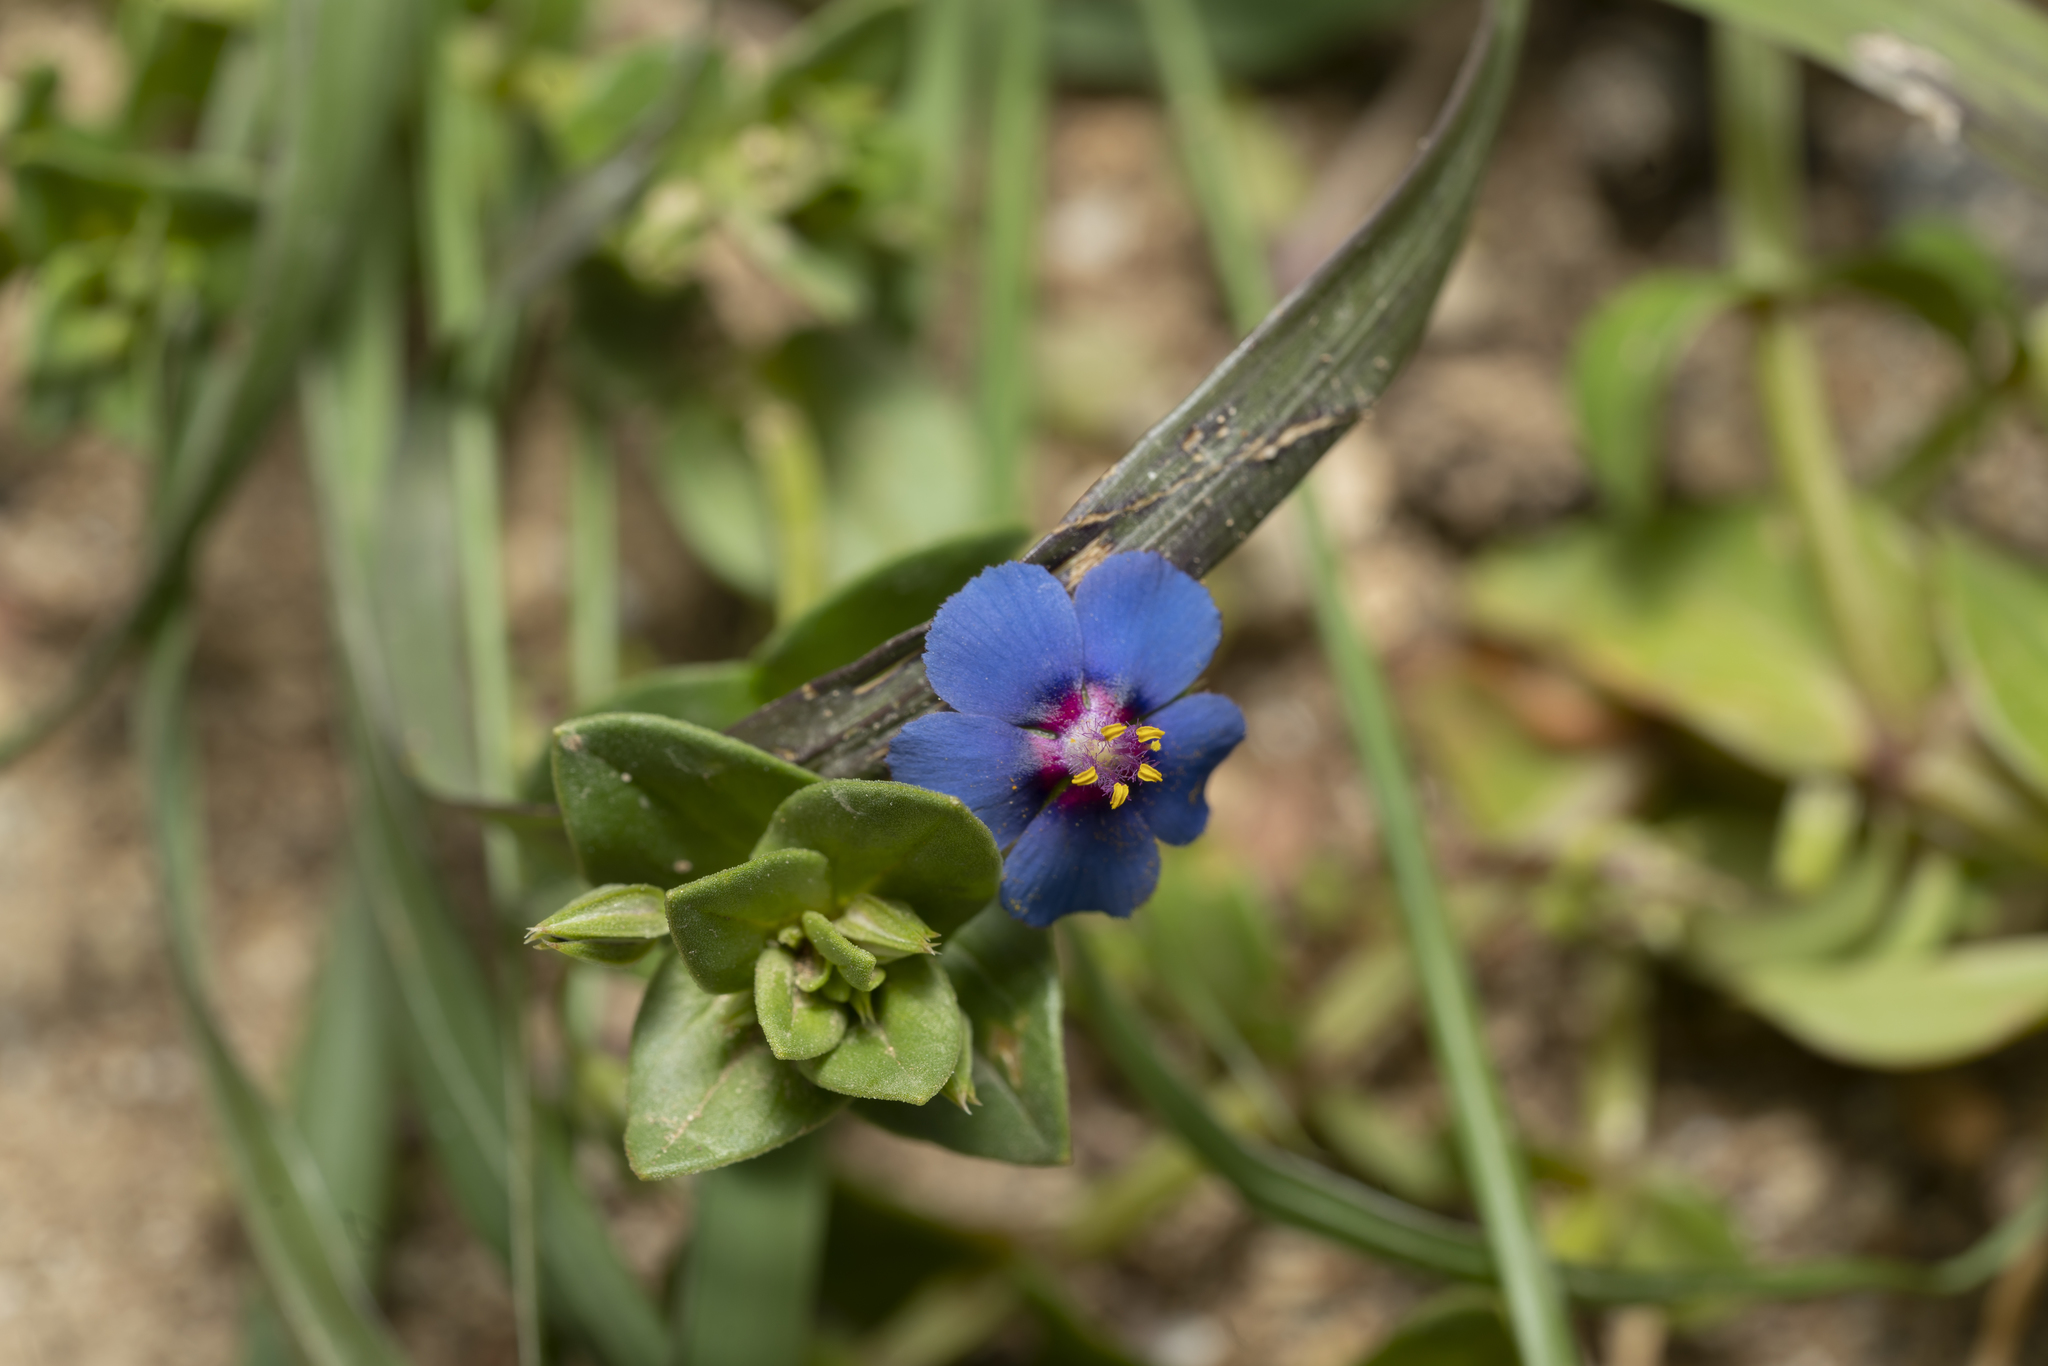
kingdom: Plantae
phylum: Tracheophyta
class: Magnoliopsida
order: Ericales
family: Primulaceae
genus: Lysimachia
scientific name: Lysimachia loeflingii
